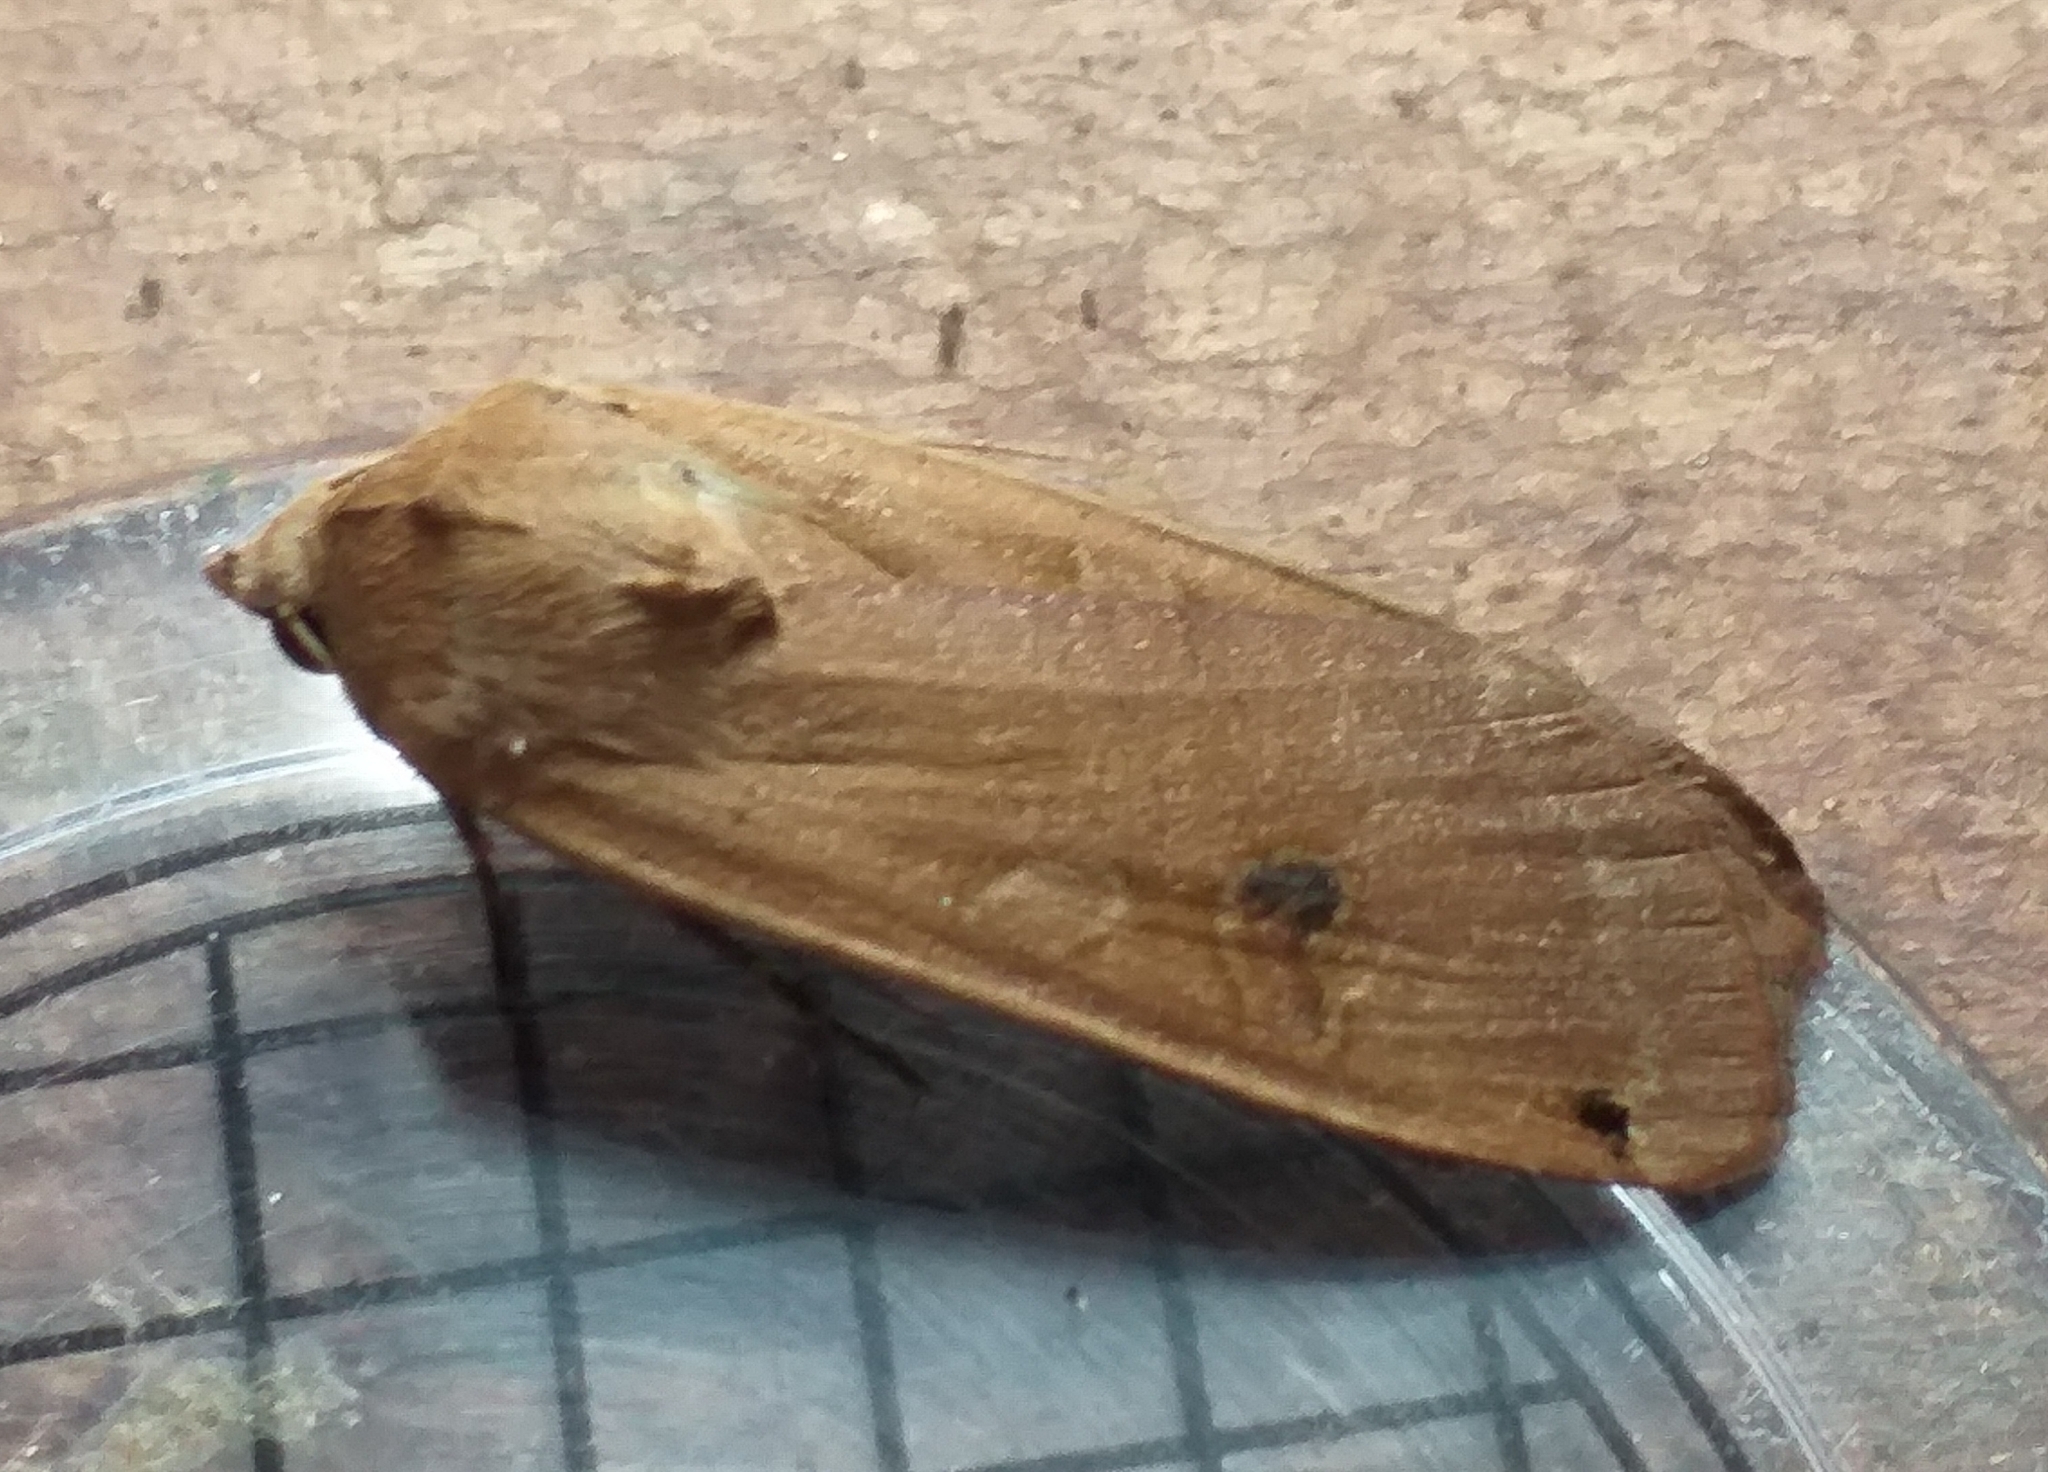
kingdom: Animalia
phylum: Arthropoda
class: Insecta
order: Lepidoptera
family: Noctuidae
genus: Noctua
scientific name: Noctua pronuba
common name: Large yellow underwing
